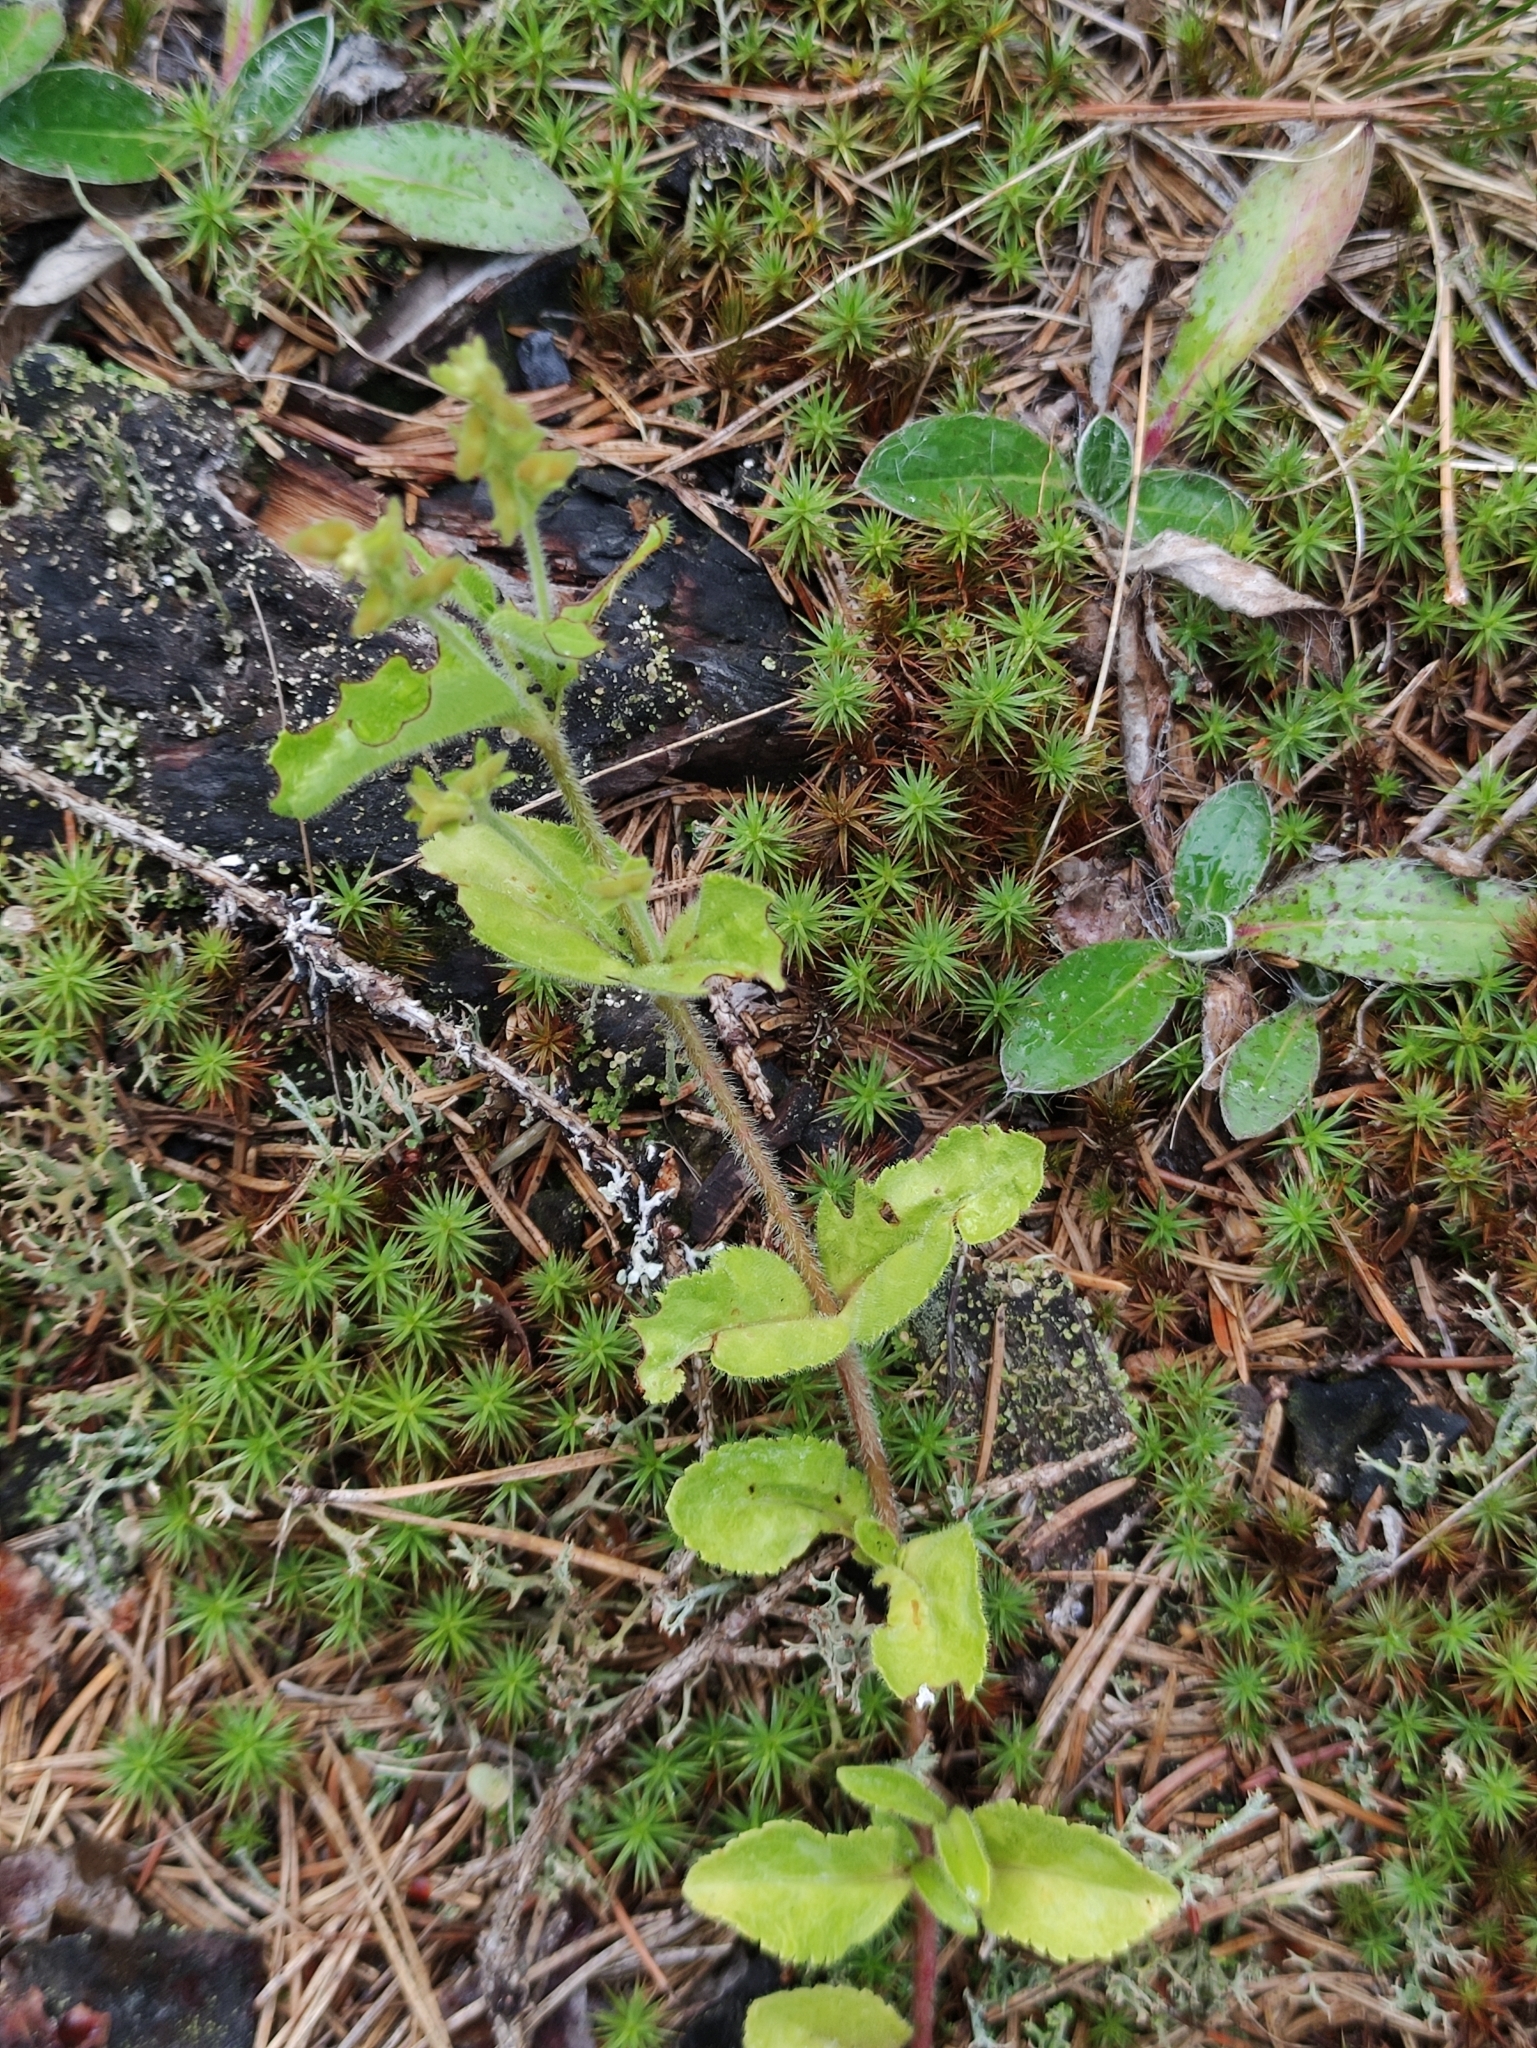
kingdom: Plantae
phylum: Tracheophyta
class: Magnoliopsida
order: Lamiales
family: Plantaginaceae
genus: Veronica
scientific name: Veronica officinalis
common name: Common speedwell
